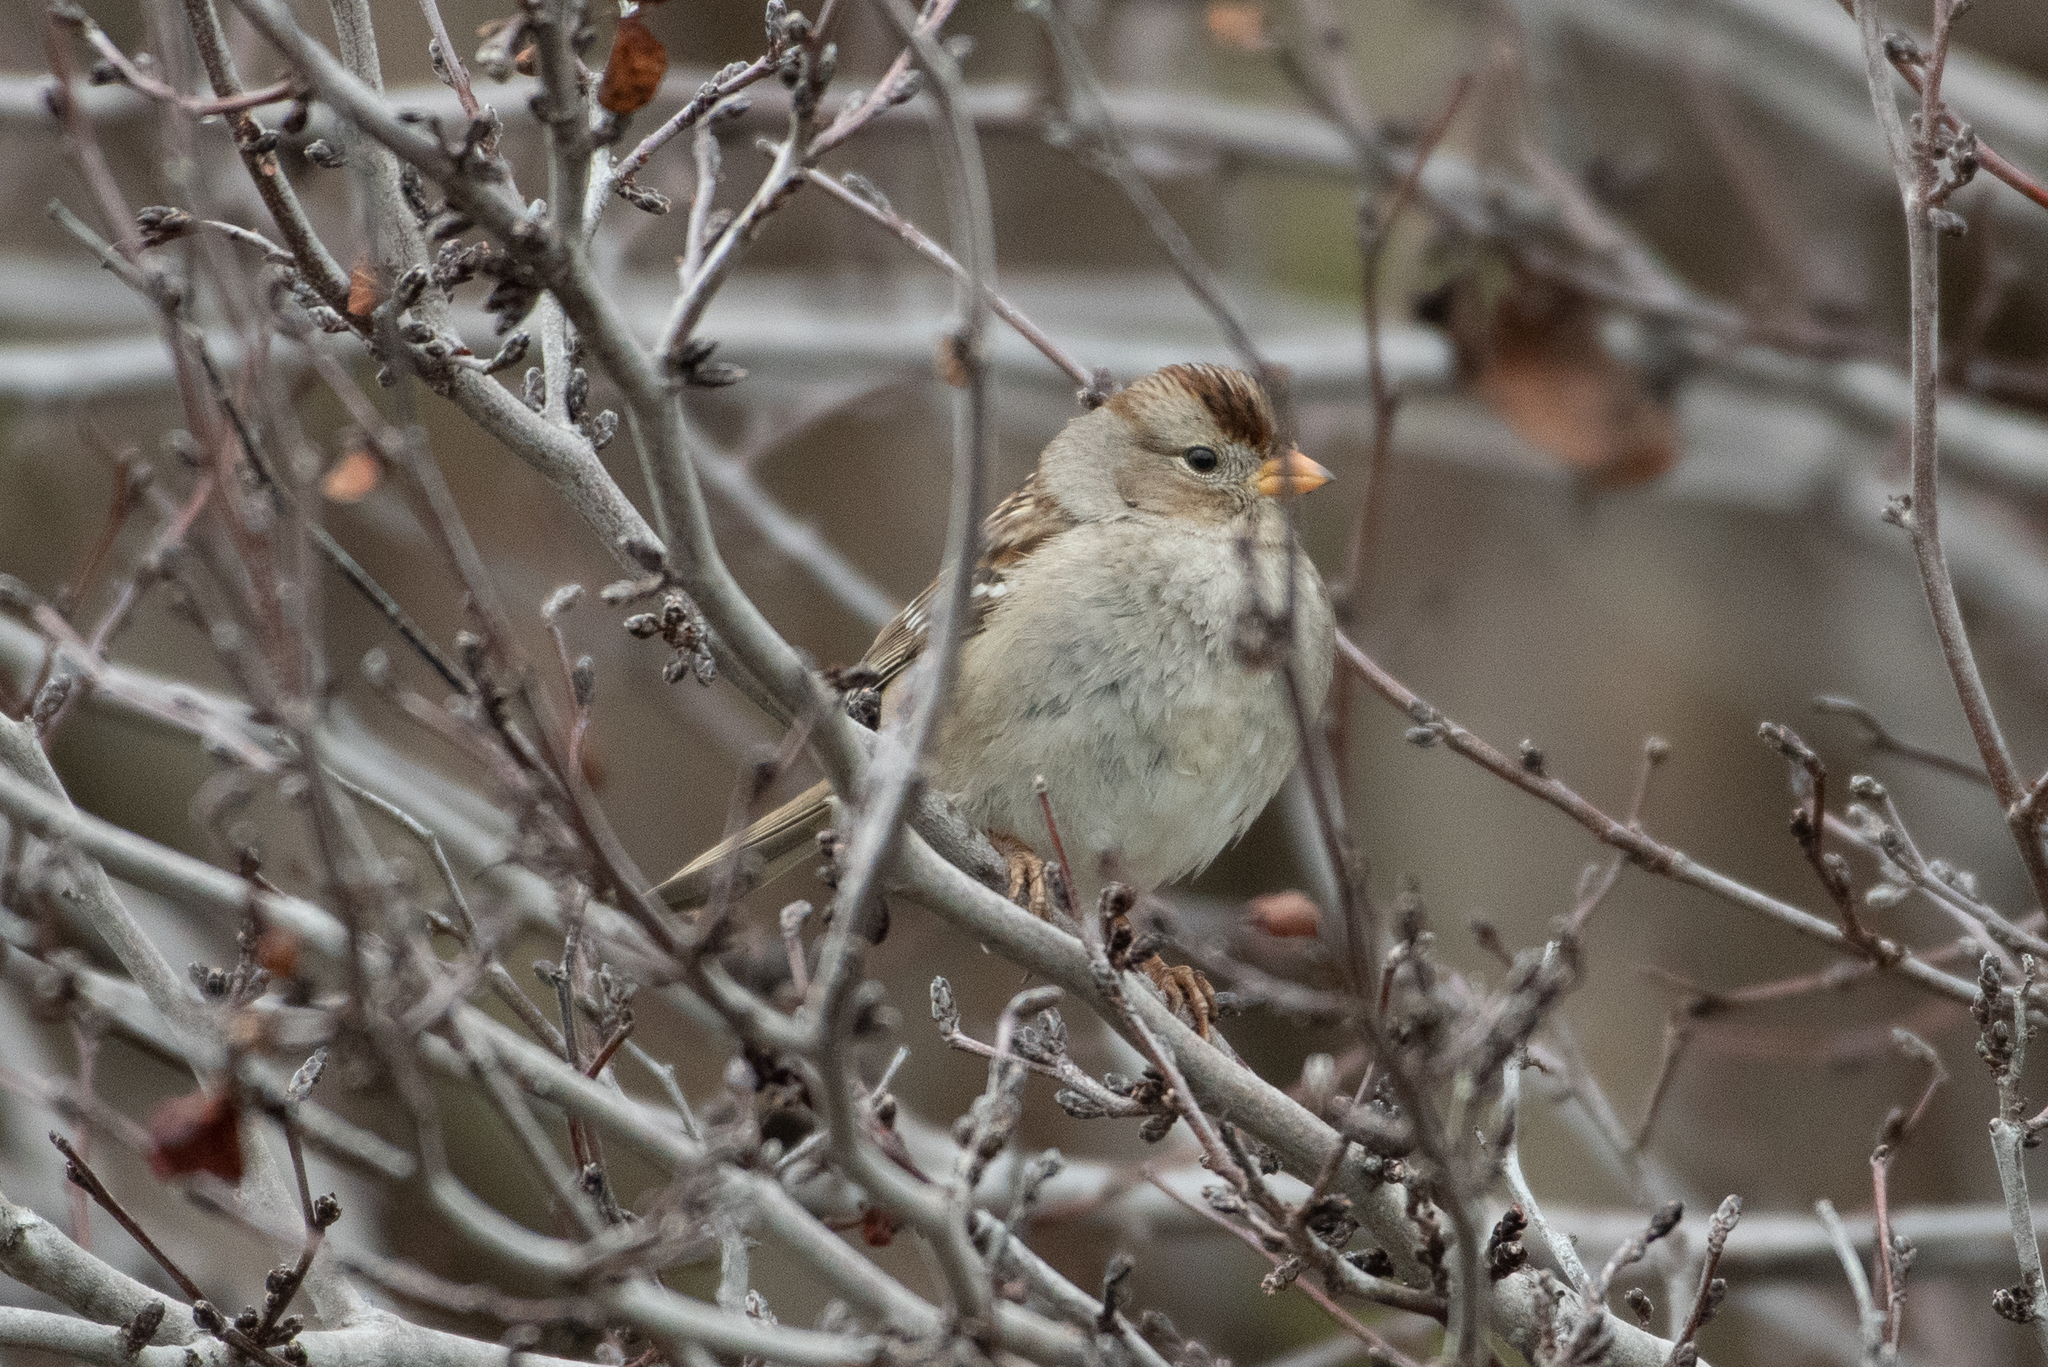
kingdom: Animalia
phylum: Chordata
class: Aves
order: Passeriformes
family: Passerellidae
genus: Zonotrichia
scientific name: Zonotrichia leucophrys
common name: White-crowned sparrow
